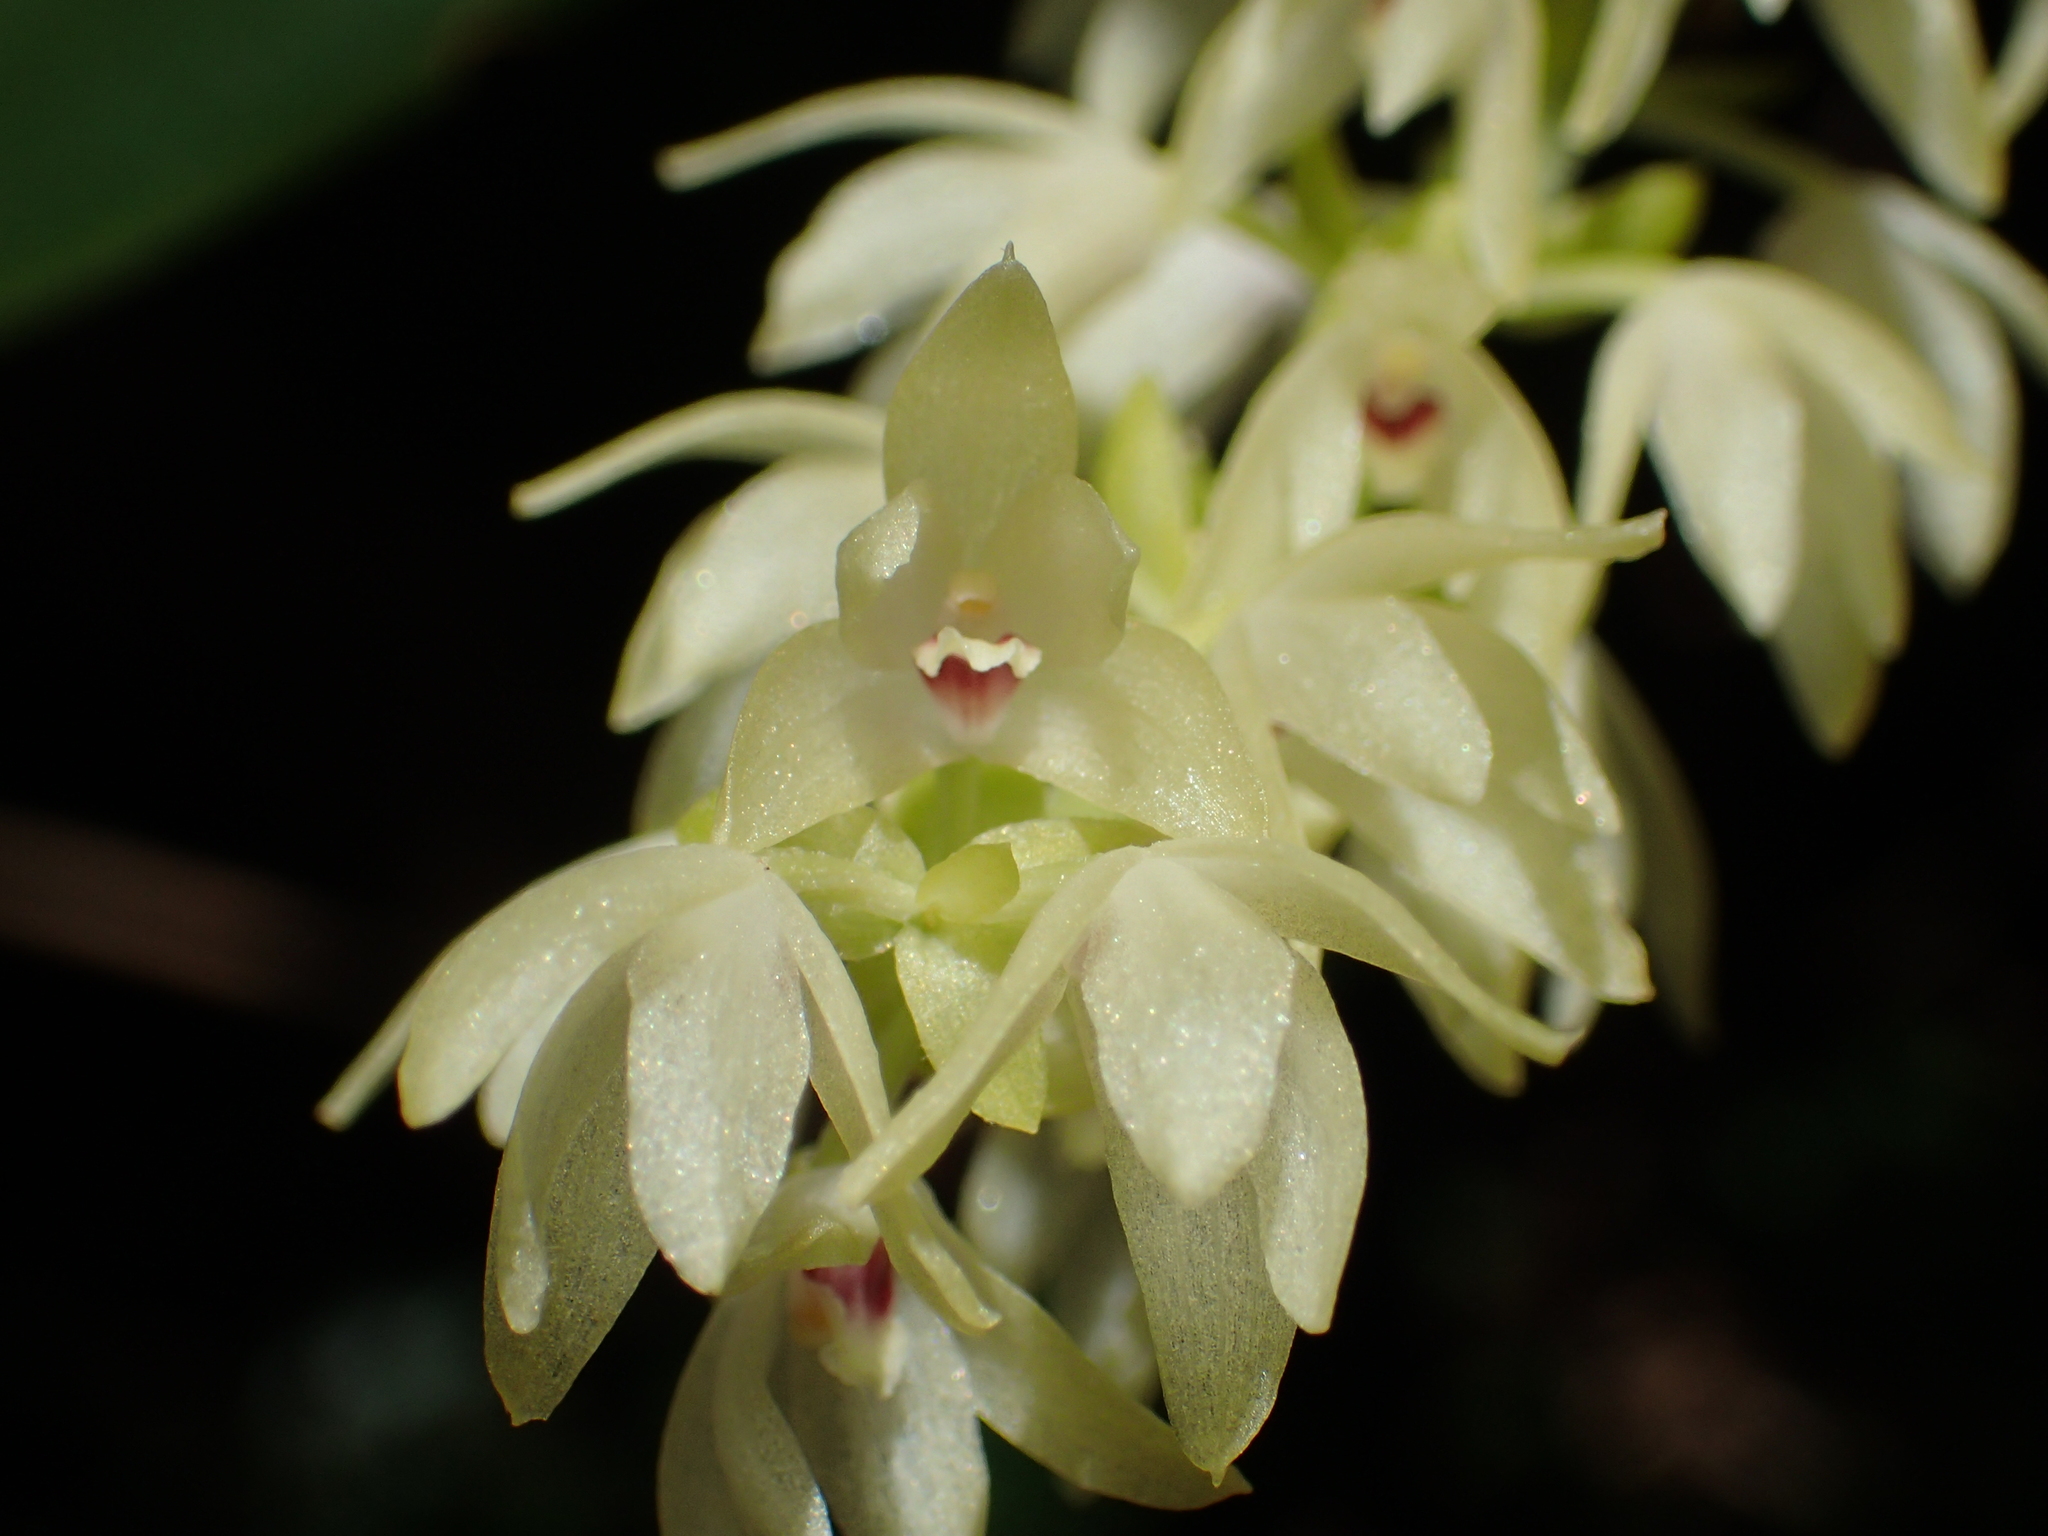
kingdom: Plantae
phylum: Tracheophyta
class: Liliopsida
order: Asparagales
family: Orchidaceae
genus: Pinalia
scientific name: Pinalia ovata
